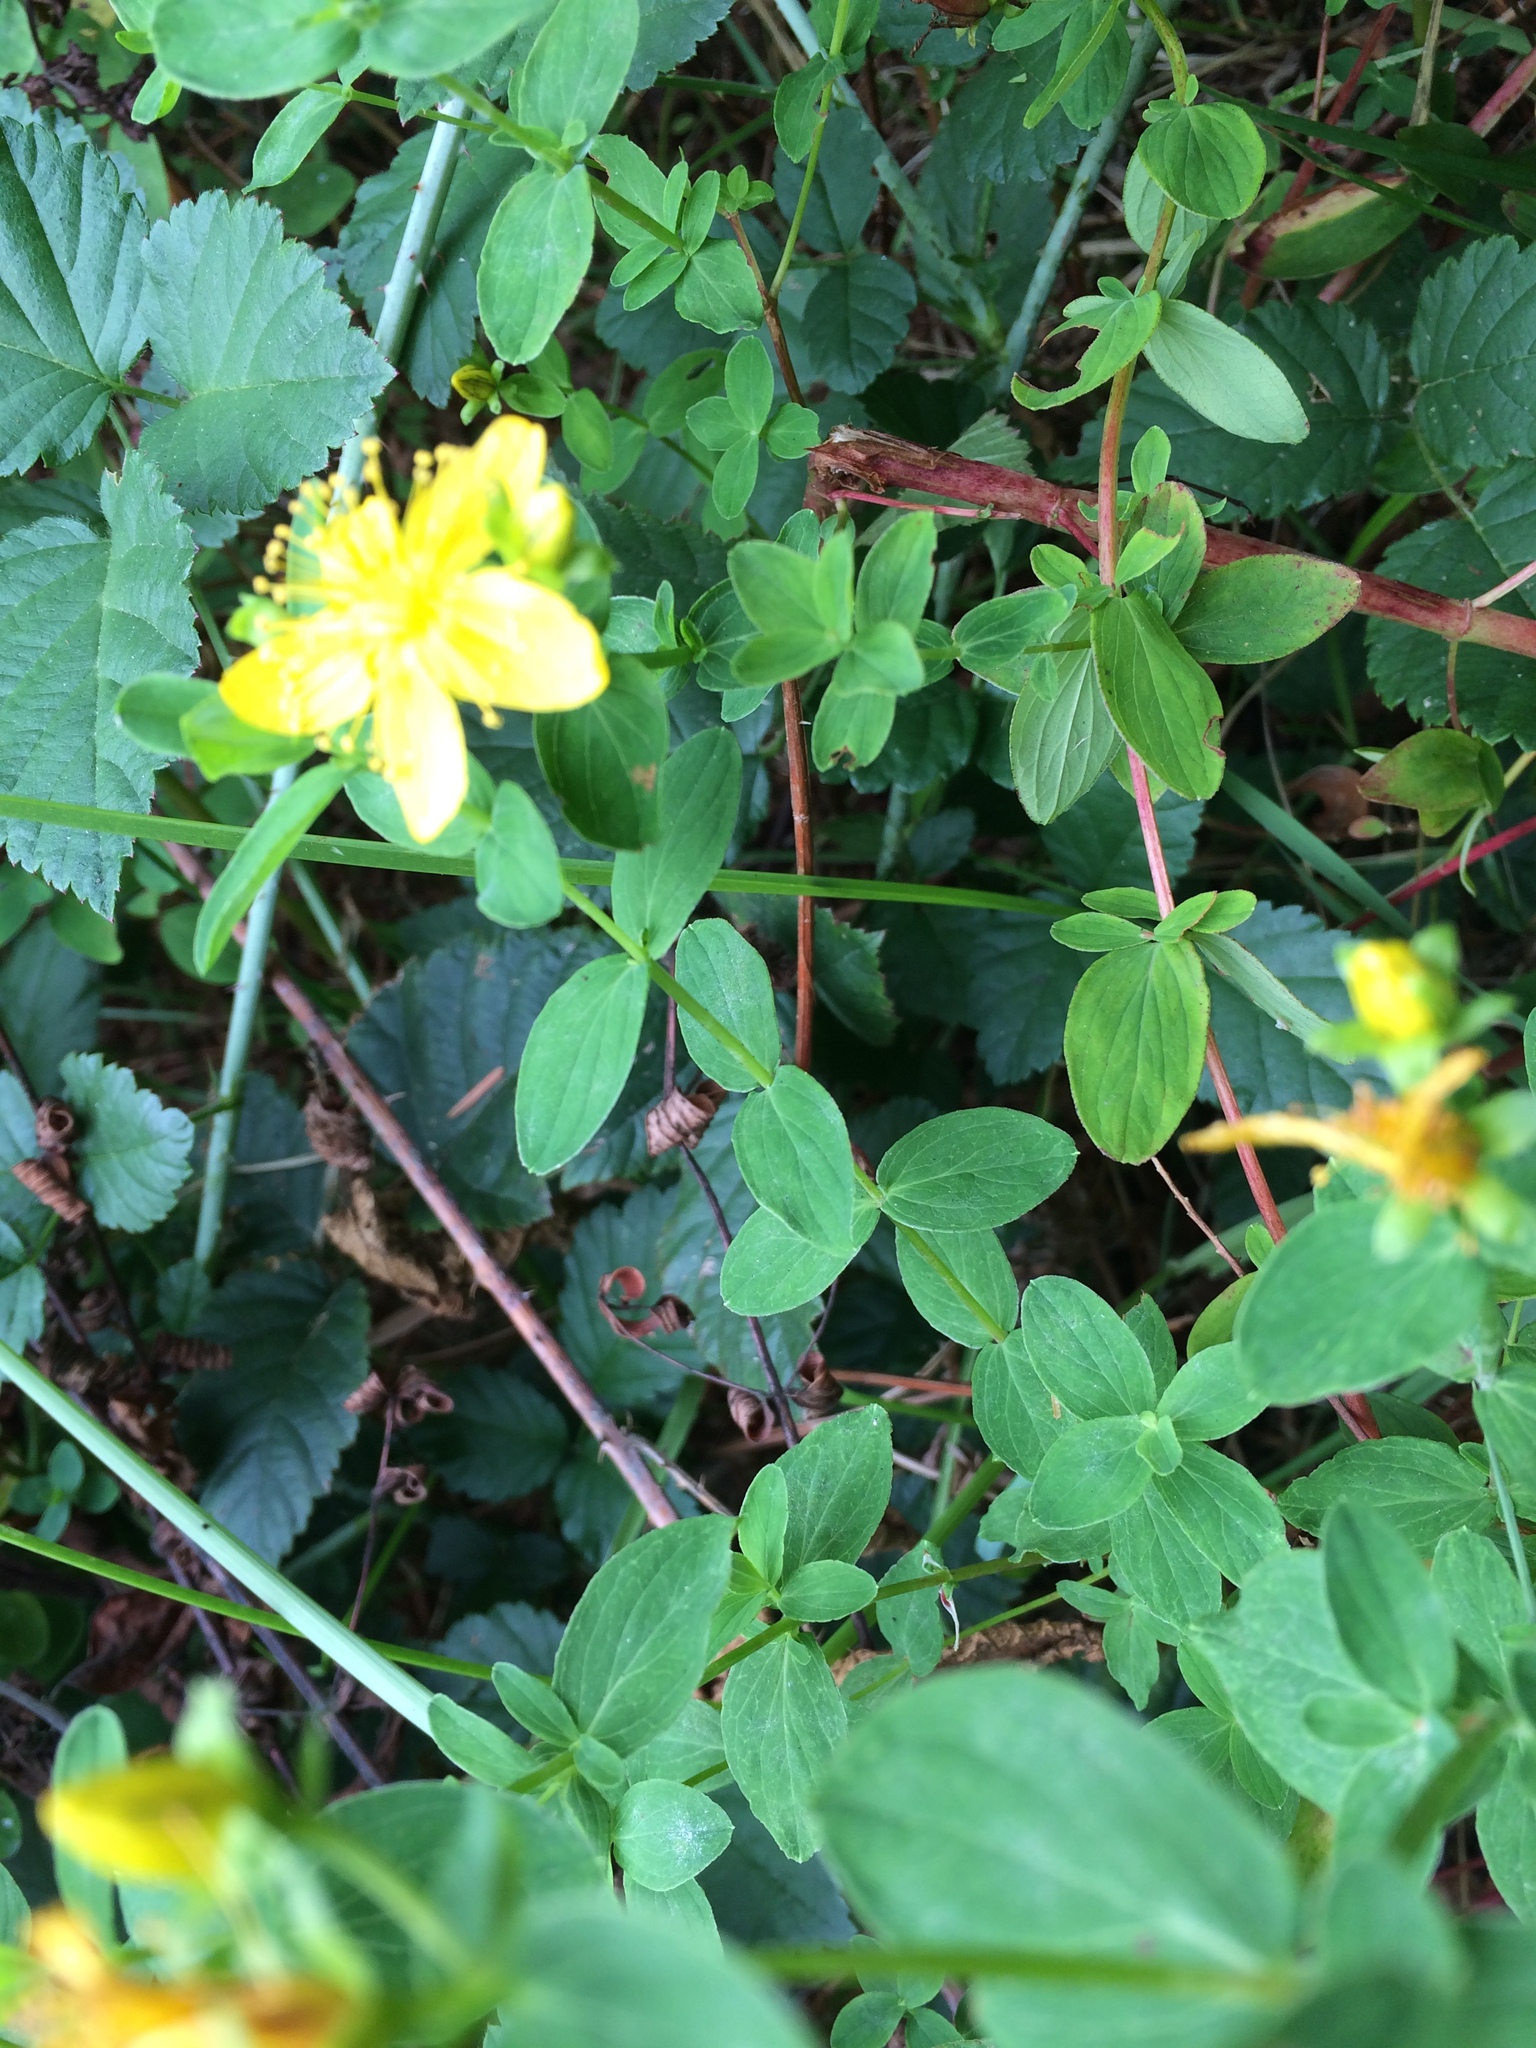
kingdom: Plantae
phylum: Tracheophyta
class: Magnoliopsida
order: Malpighiales
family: Hypericaceae
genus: Hypericum
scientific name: Hypericum perforatum
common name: Common st. johnswort
